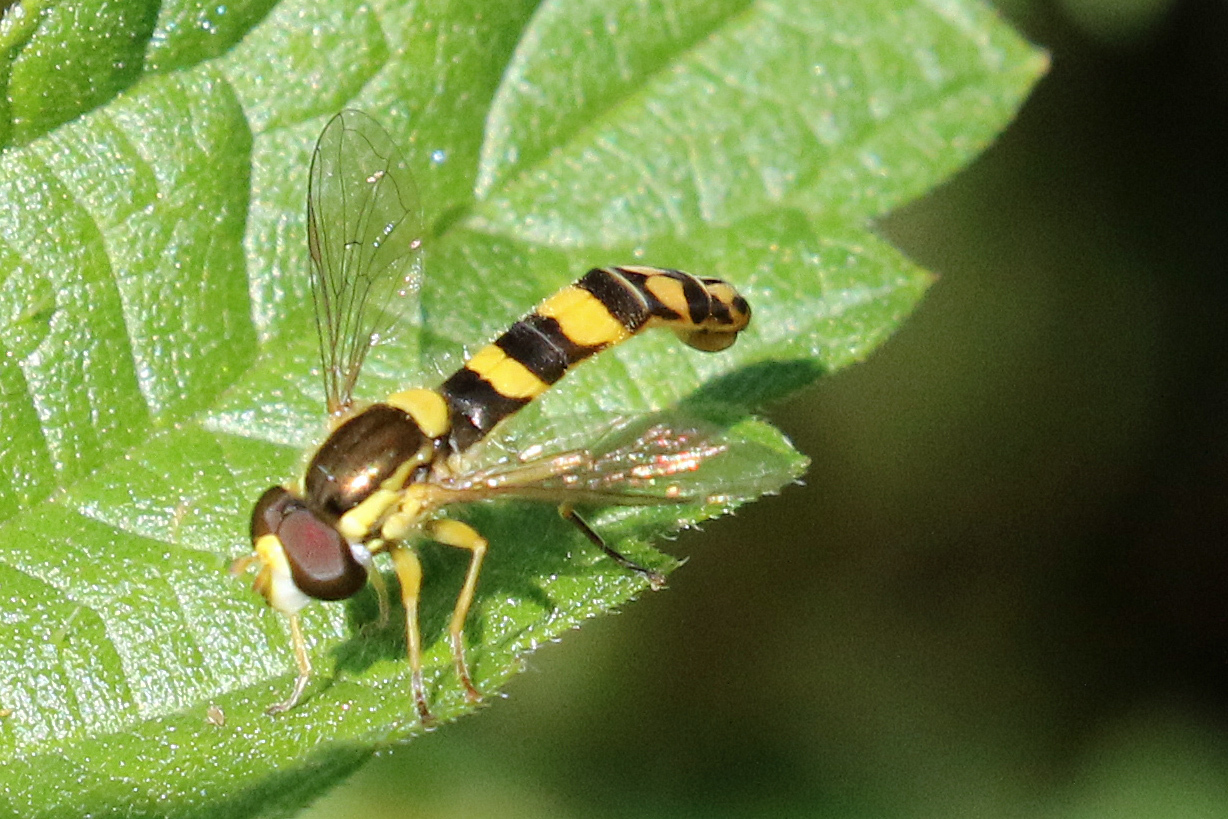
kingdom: Animalia
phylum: Arthropoda
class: Insecta
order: Diptera
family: Syrphidae
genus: Sphaerophoria
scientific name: Sphaerophoria scripta
